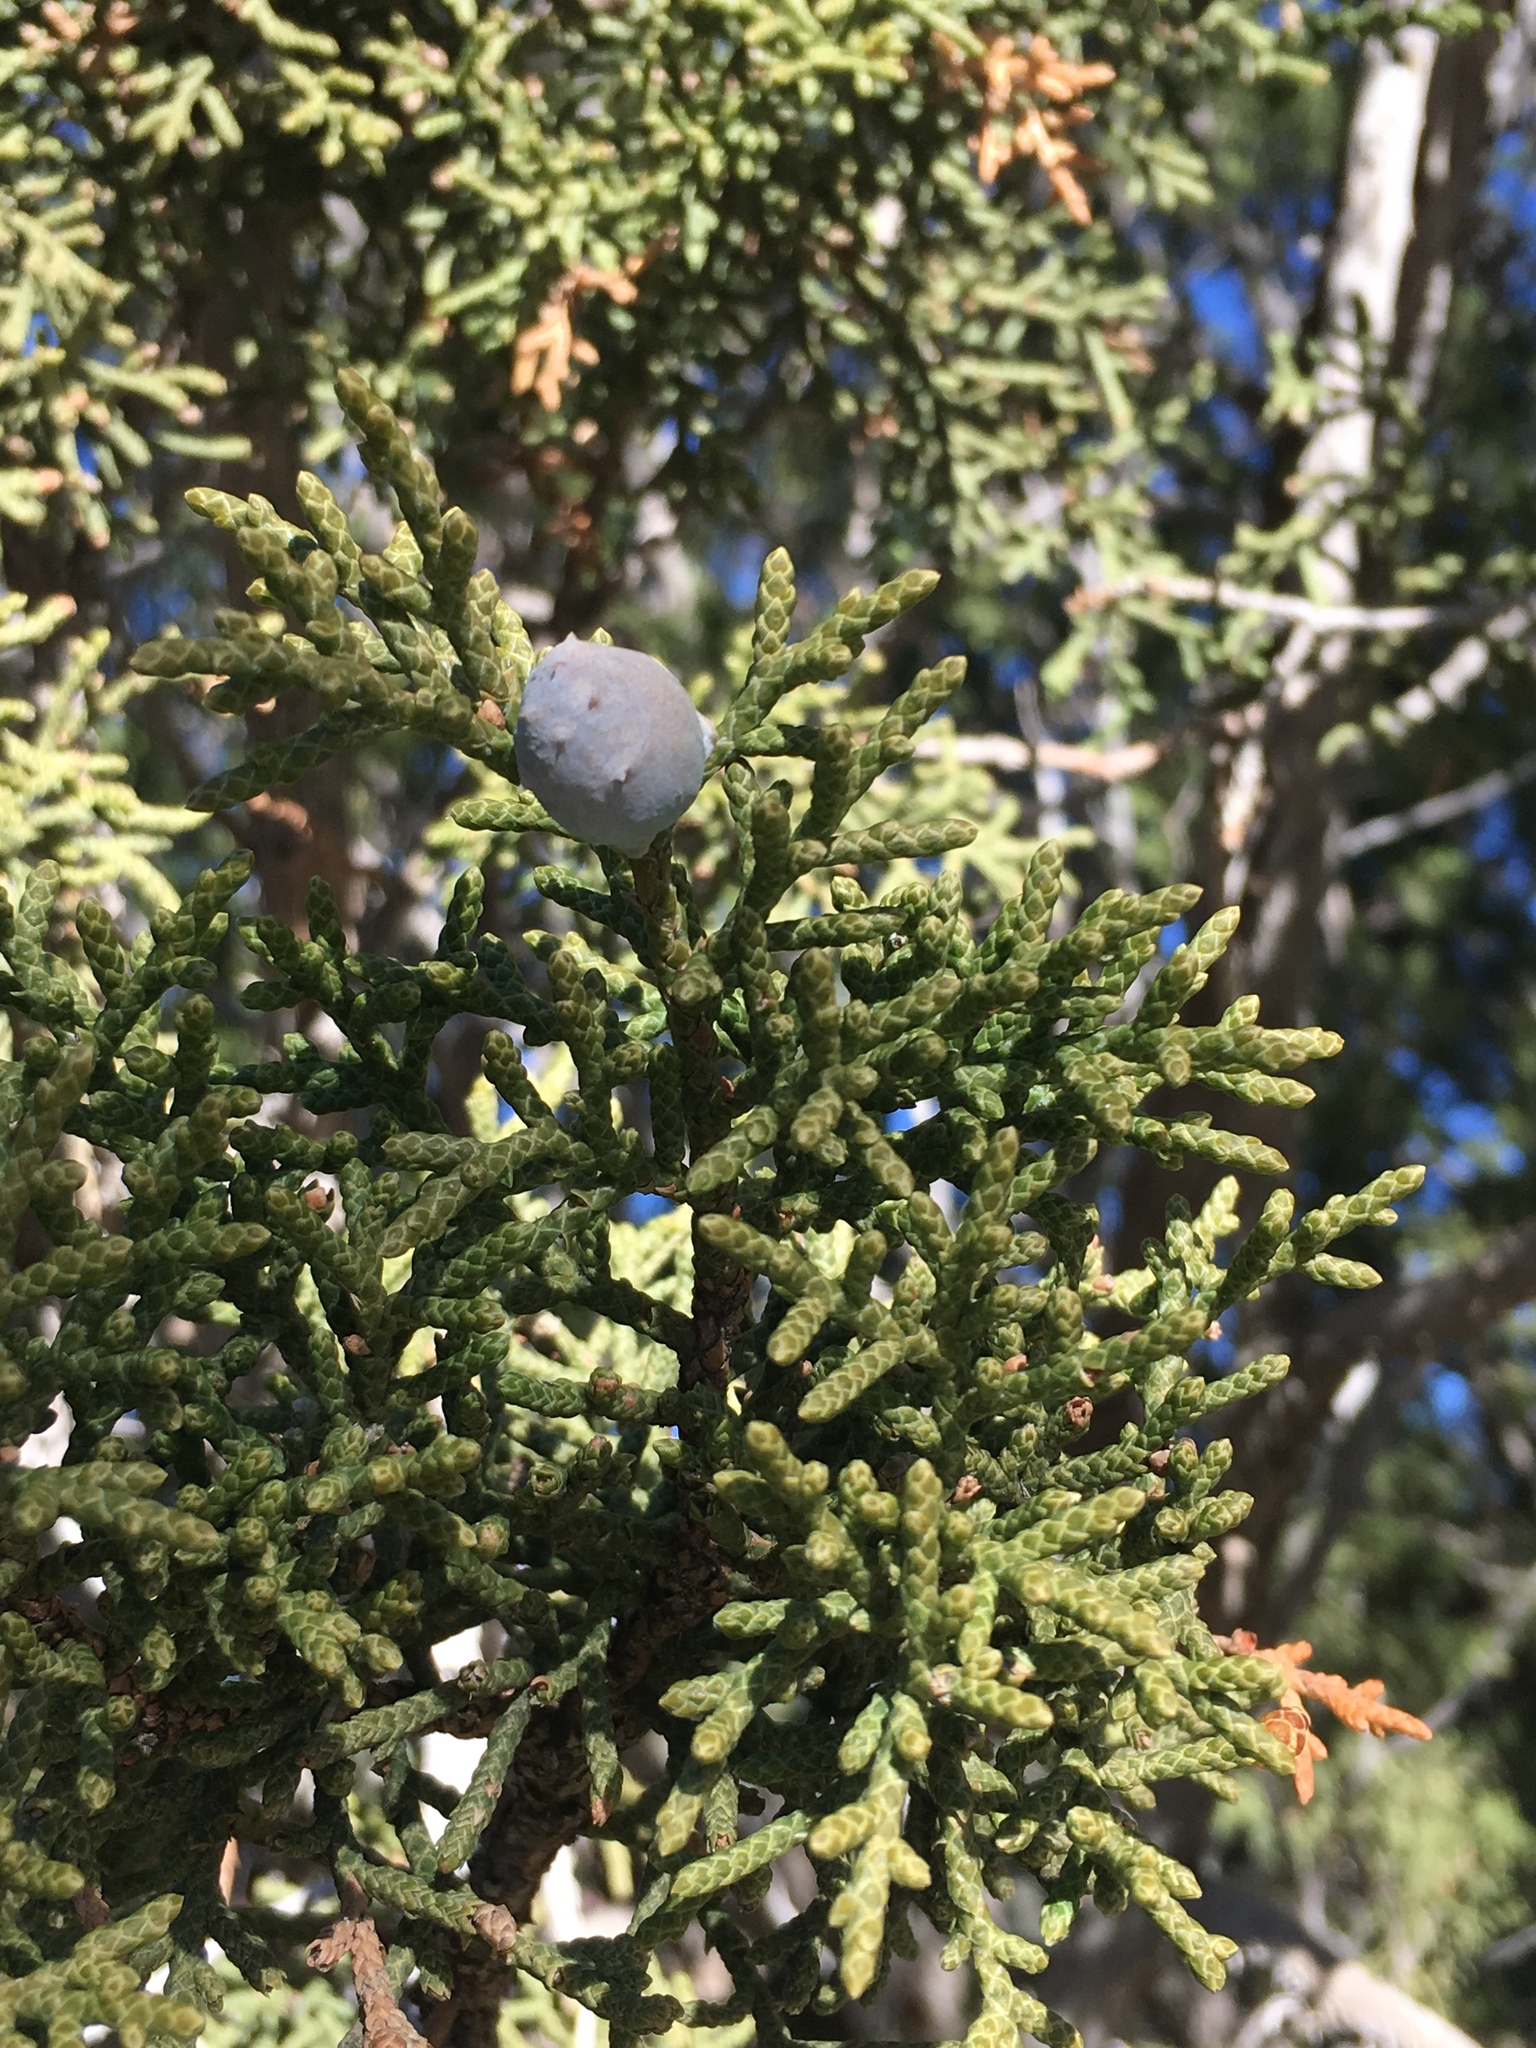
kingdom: Plantae
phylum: Tracheophyta
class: Pinopsida
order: Pinales
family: Cupressaceae
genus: Juniperus
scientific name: Juniperus californica
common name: California juniper
